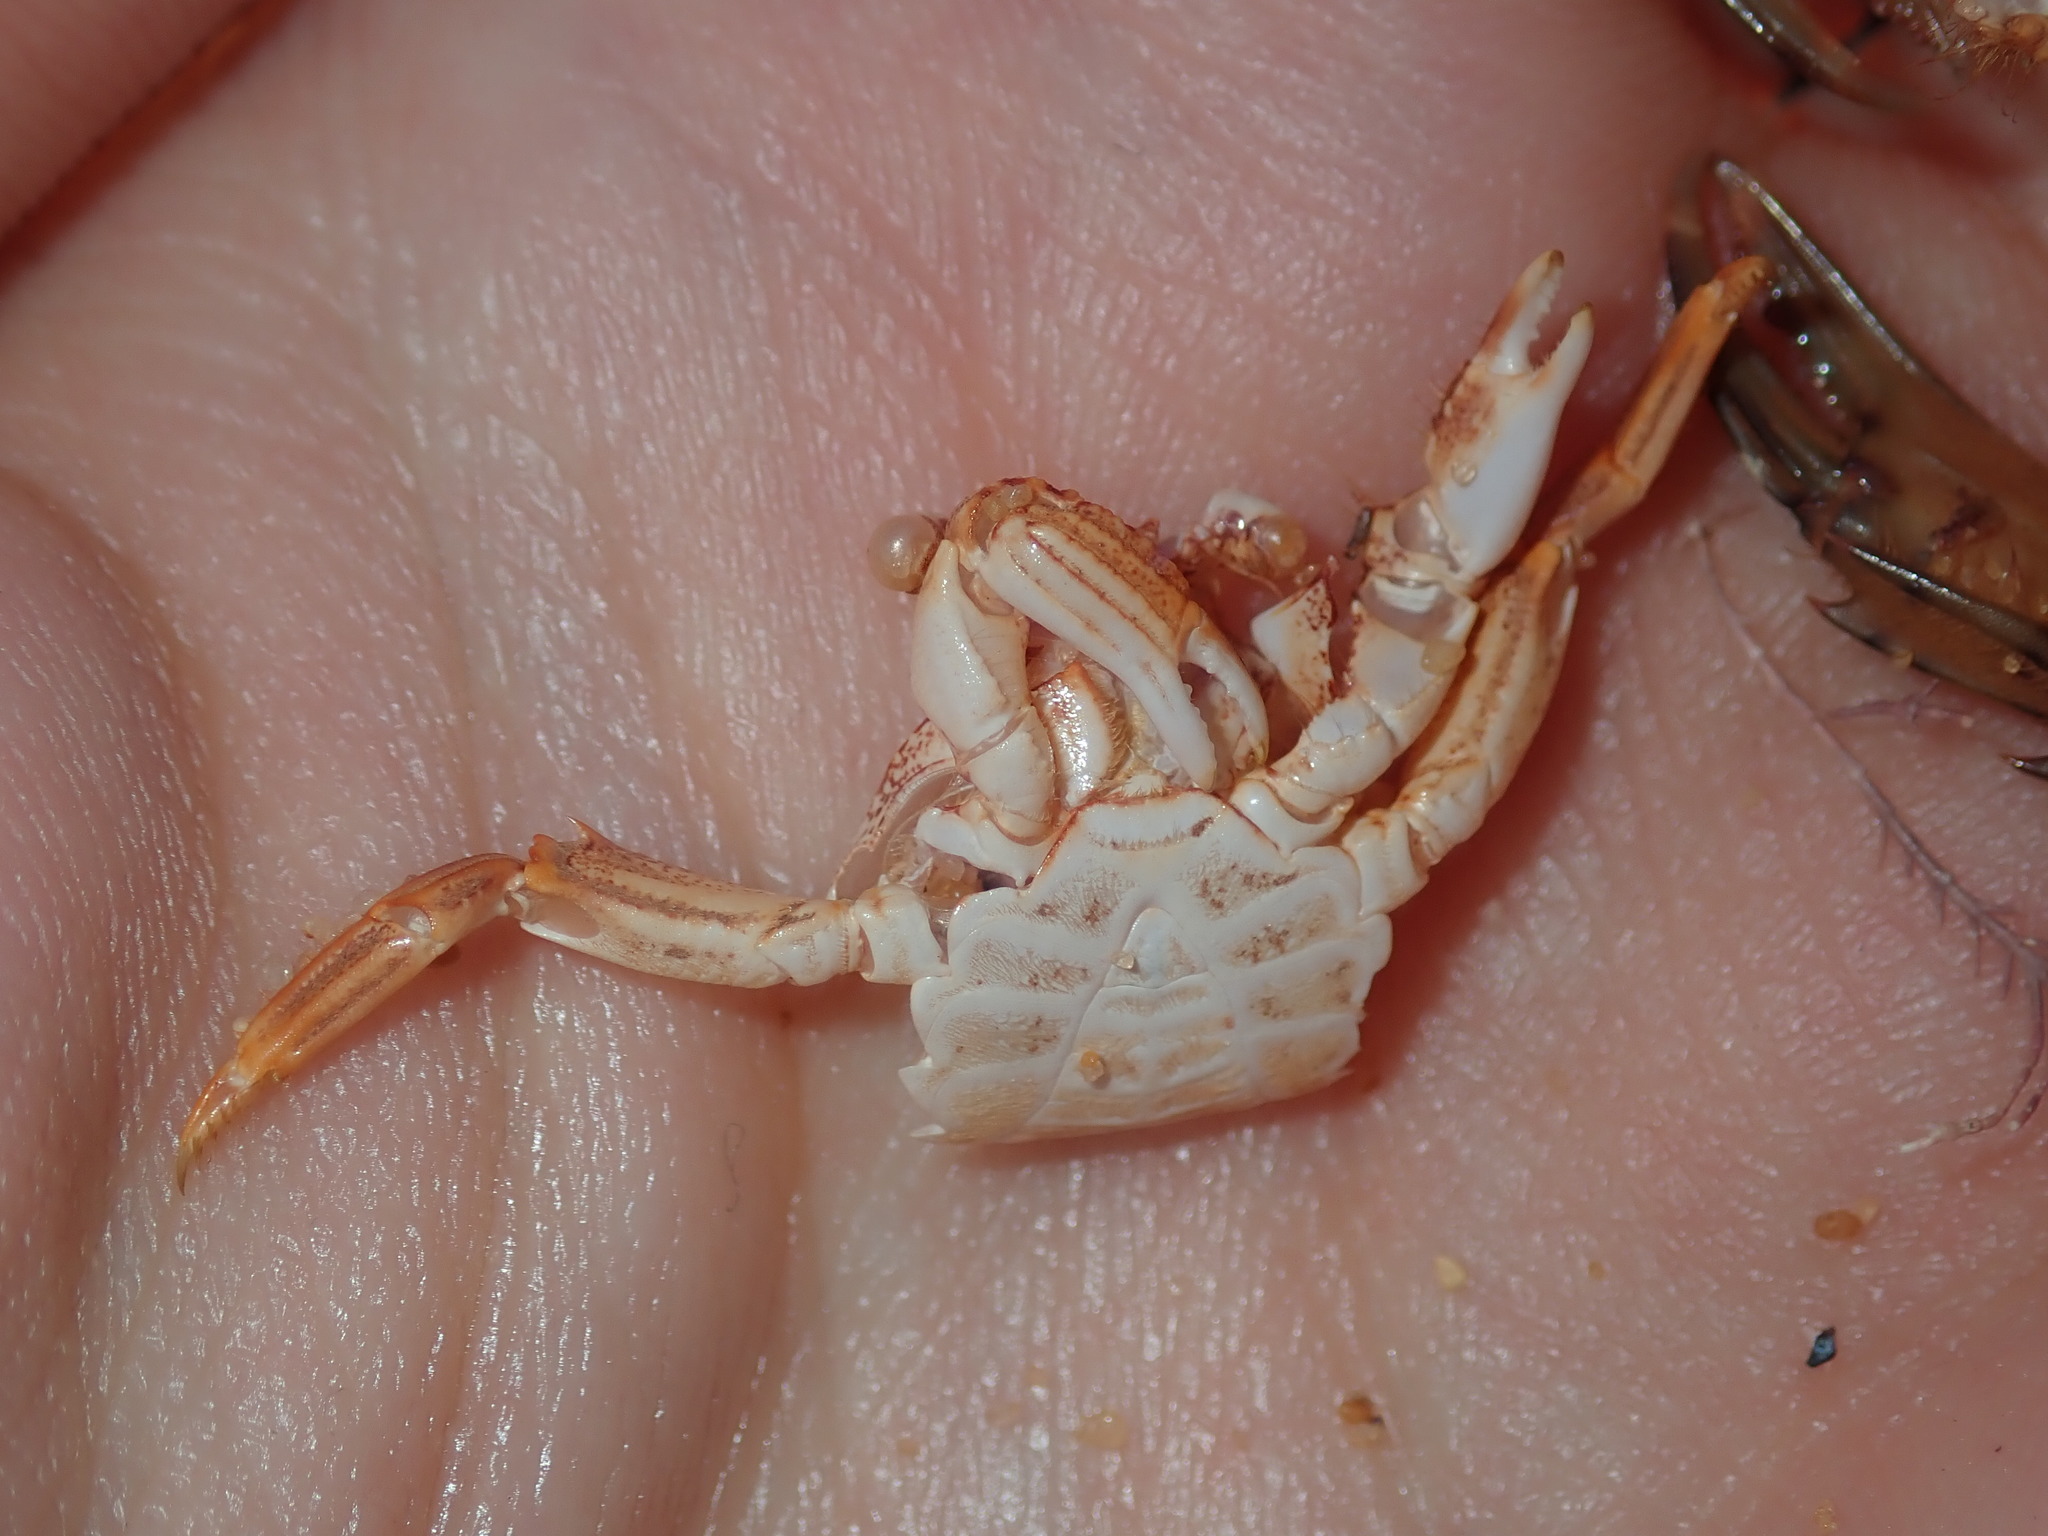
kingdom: Animalia
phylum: Arthropoda
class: Malacostraca
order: Decapoda
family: Plagusiidae
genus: Guinusia
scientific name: Guinusia chabrus
